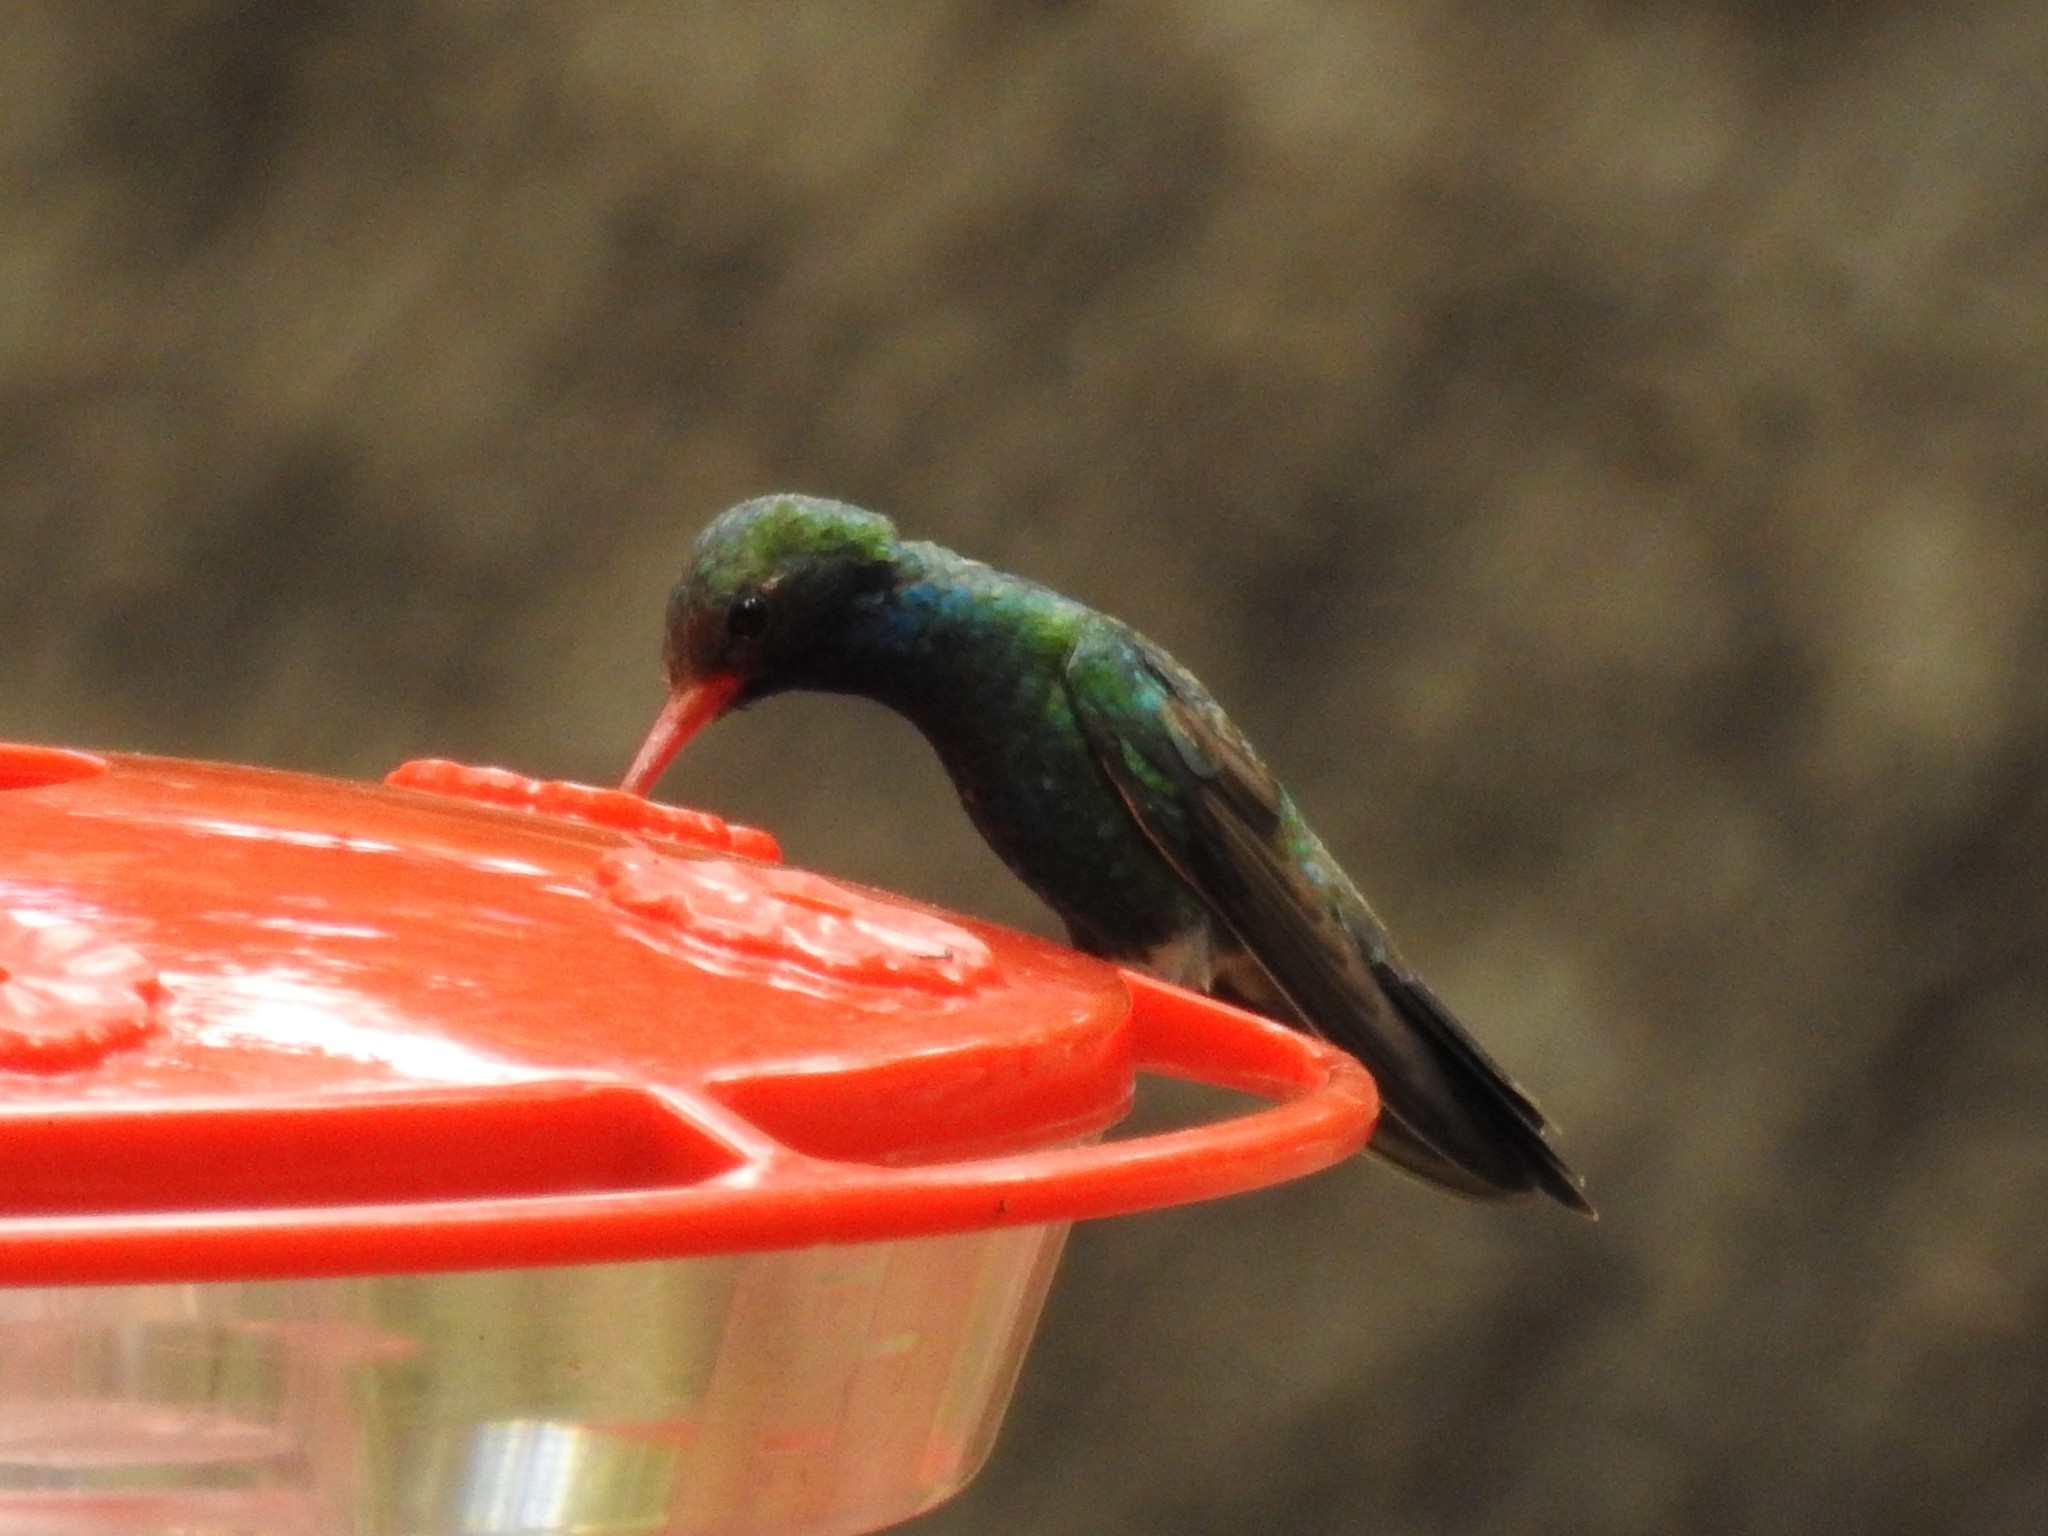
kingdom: Animalia
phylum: Chordata
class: Aves
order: Apodiformes
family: Trochilidae
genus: Cynanthus
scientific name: Cynanthus latirostris
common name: Broad-billed hummingbird
